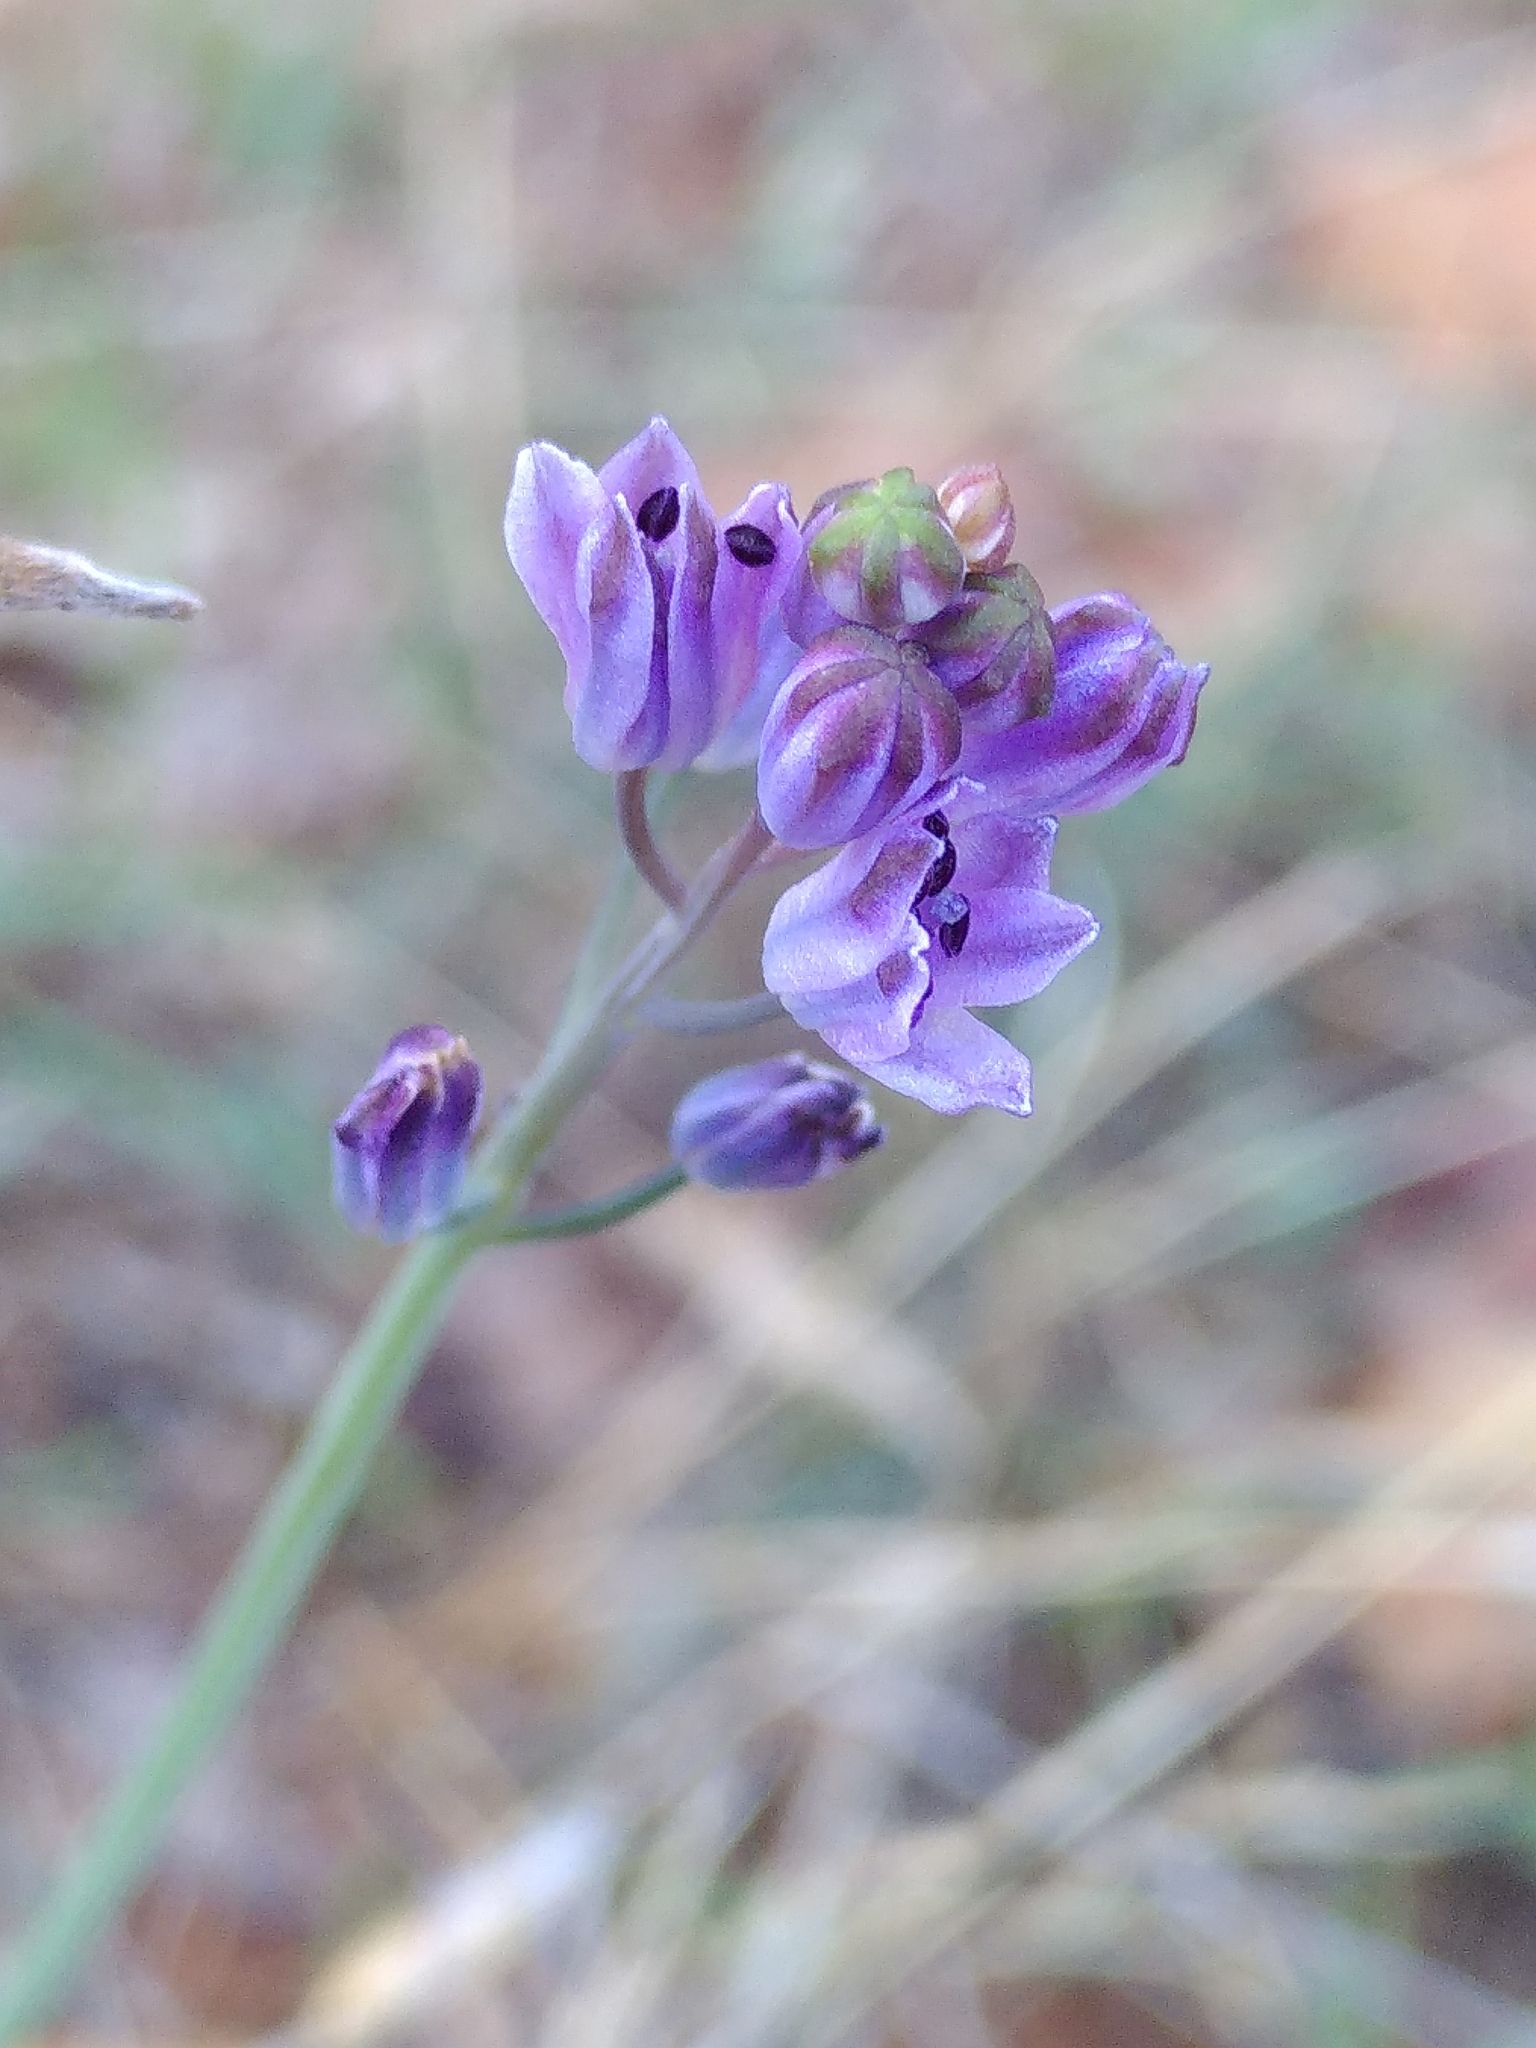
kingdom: Plantae
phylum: Tracheophyta
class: Liliopsida
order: Asparagales
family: Asparagaceae
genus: Prospero
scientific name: Prospero autumnale
